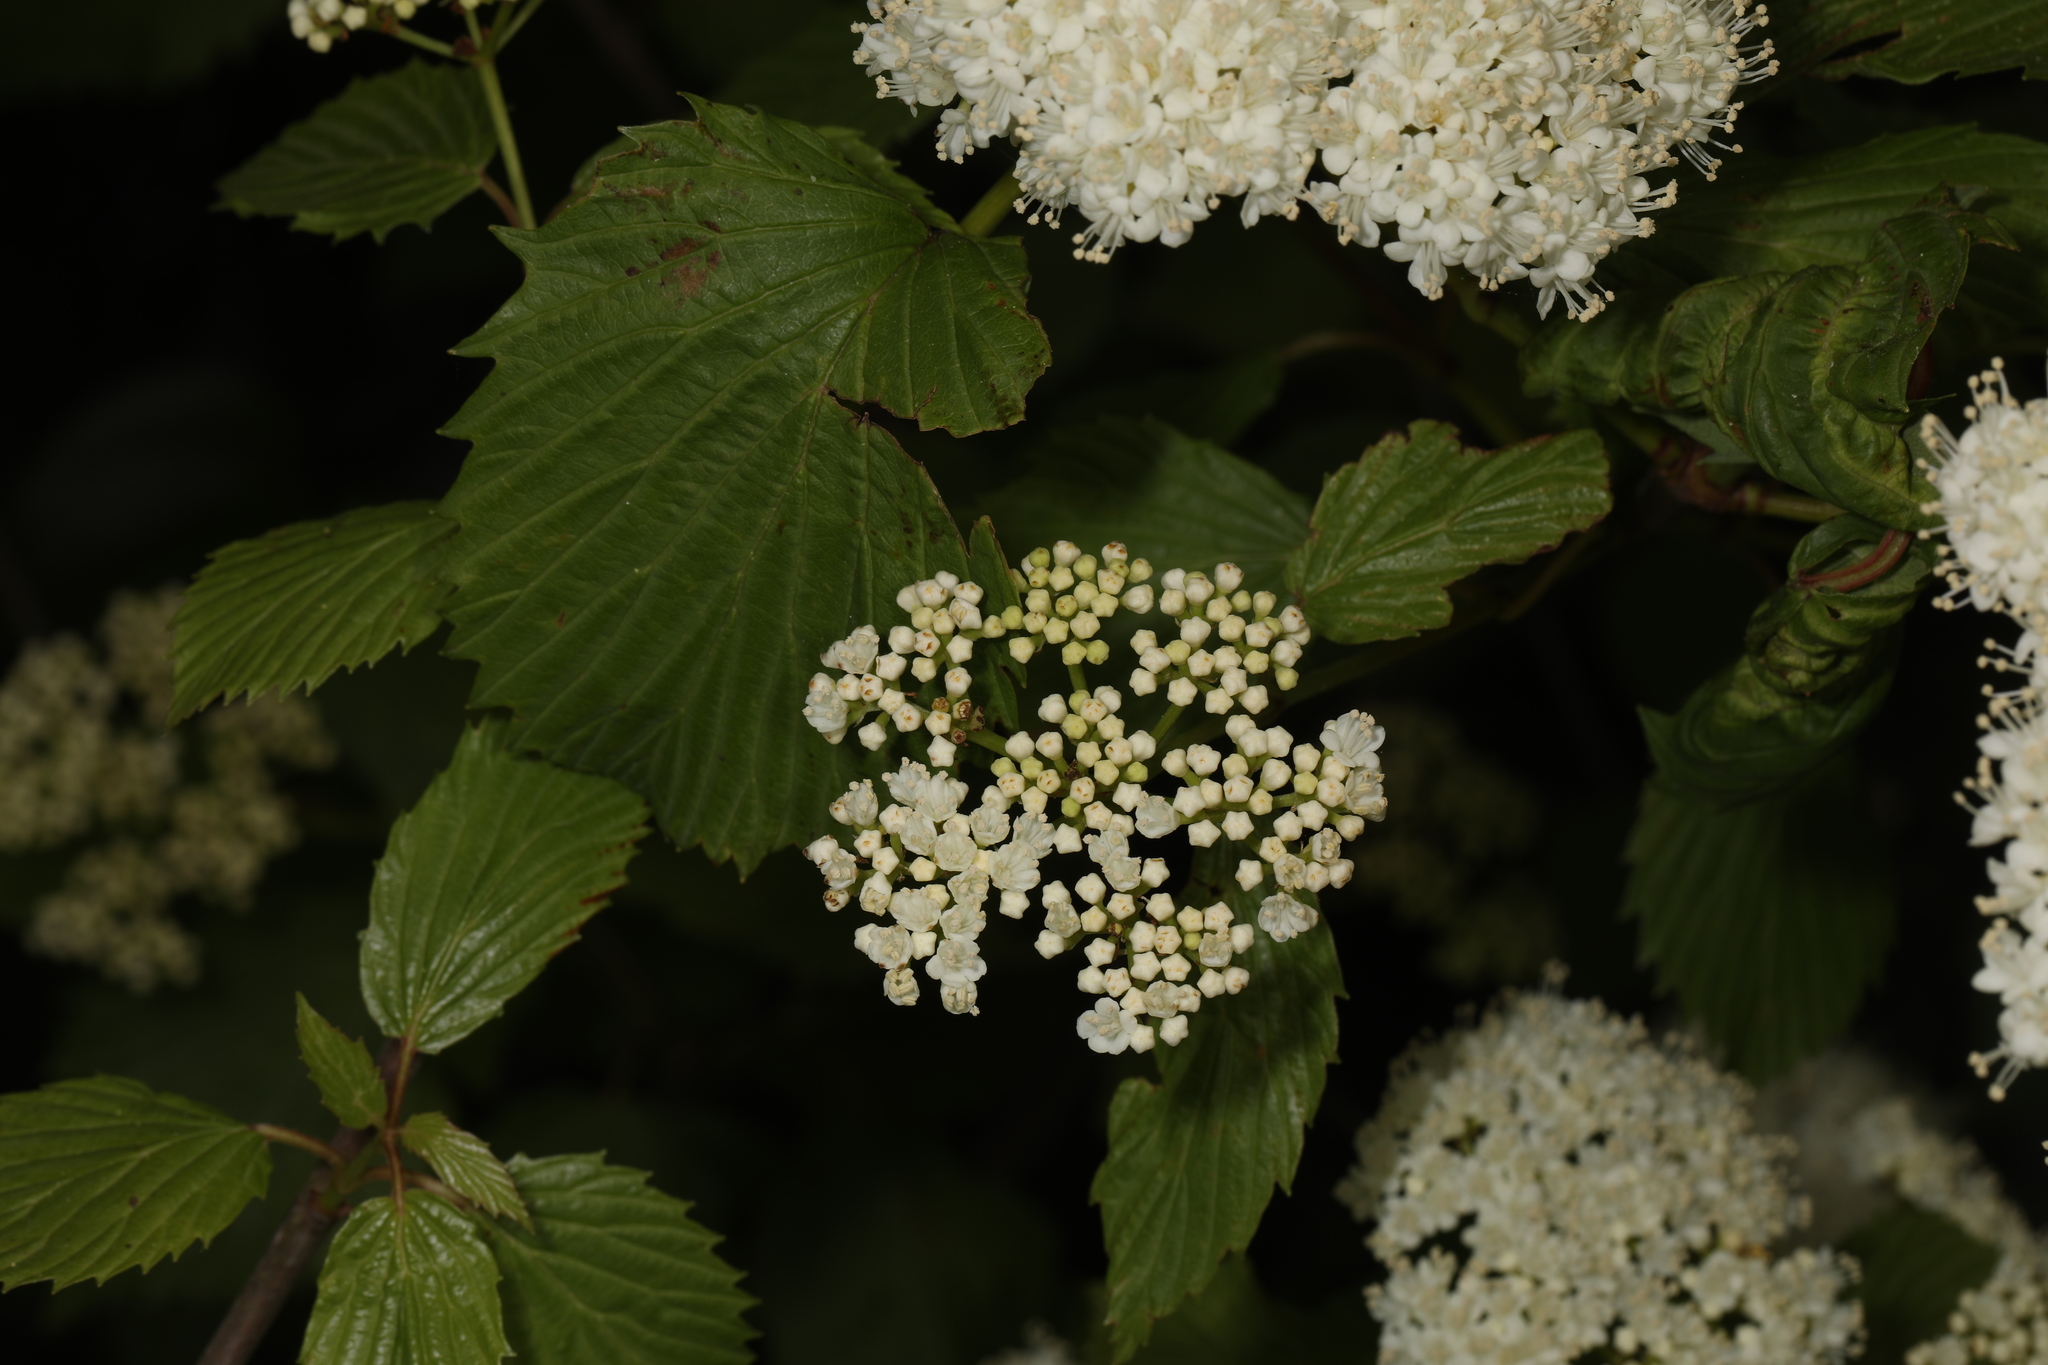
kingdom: Plantae
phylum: Tracheophyta
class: Magnoliopsida
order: Dipsacales
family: Viburnaceae
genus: Viburnum
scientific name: Viburnum dentatum
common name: Arrow-wood
